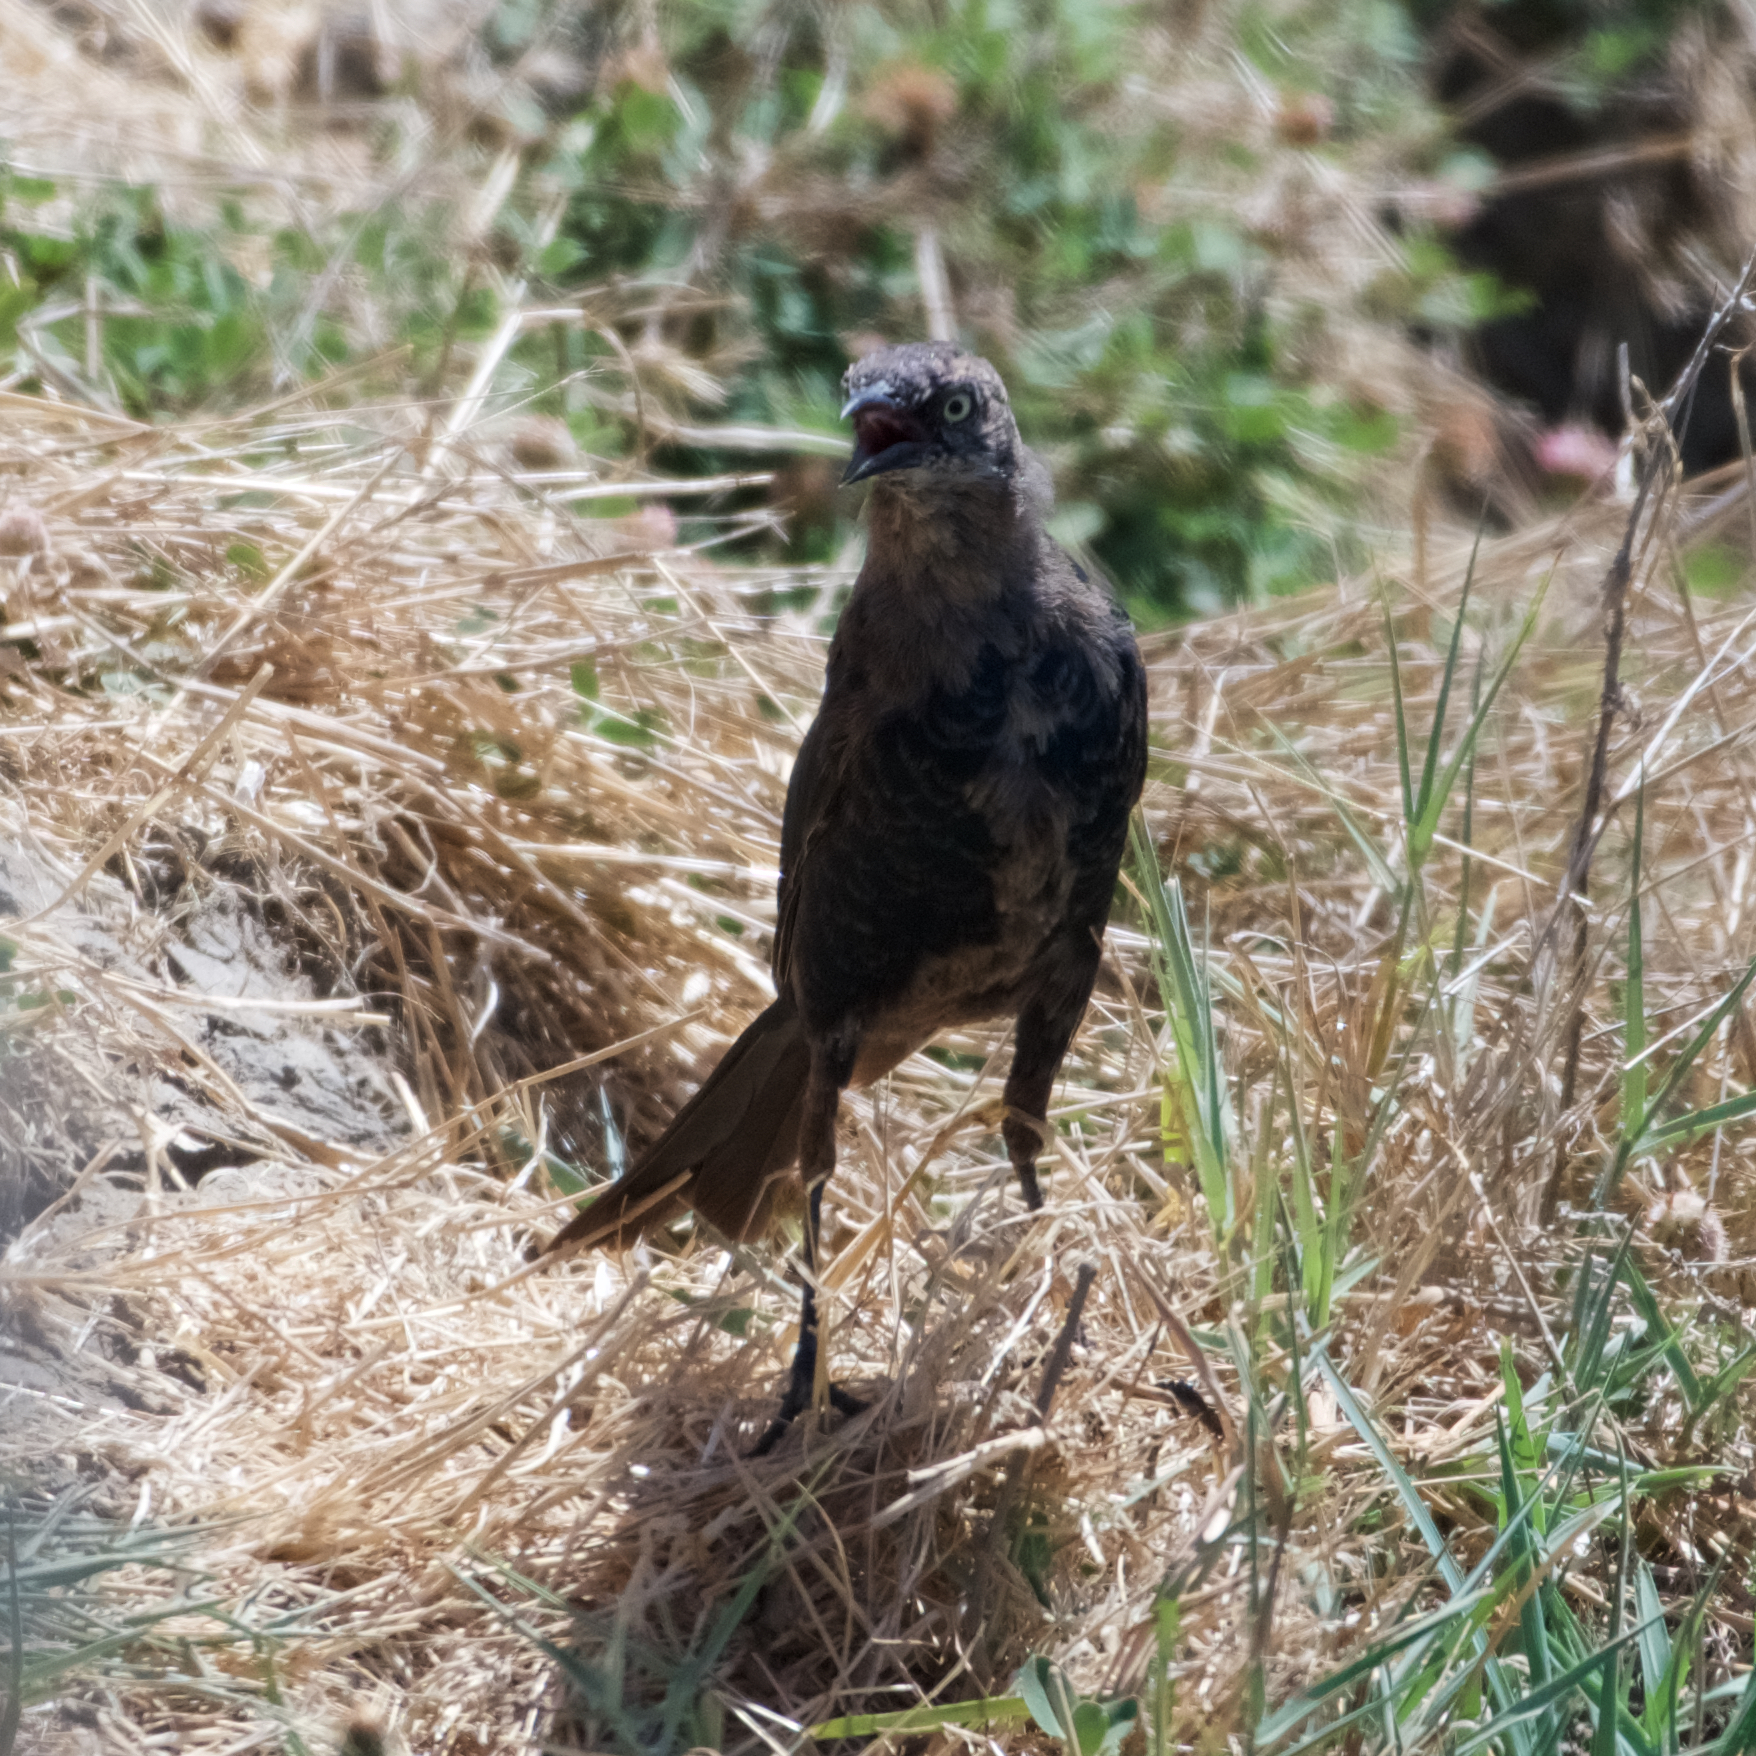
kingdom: Animalia
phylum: Chordata
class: Aves
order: Passeriformes
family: Icteridae
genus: Quiscalus
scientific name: Quiscalus mexicanus
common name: Great-tailed grackle
